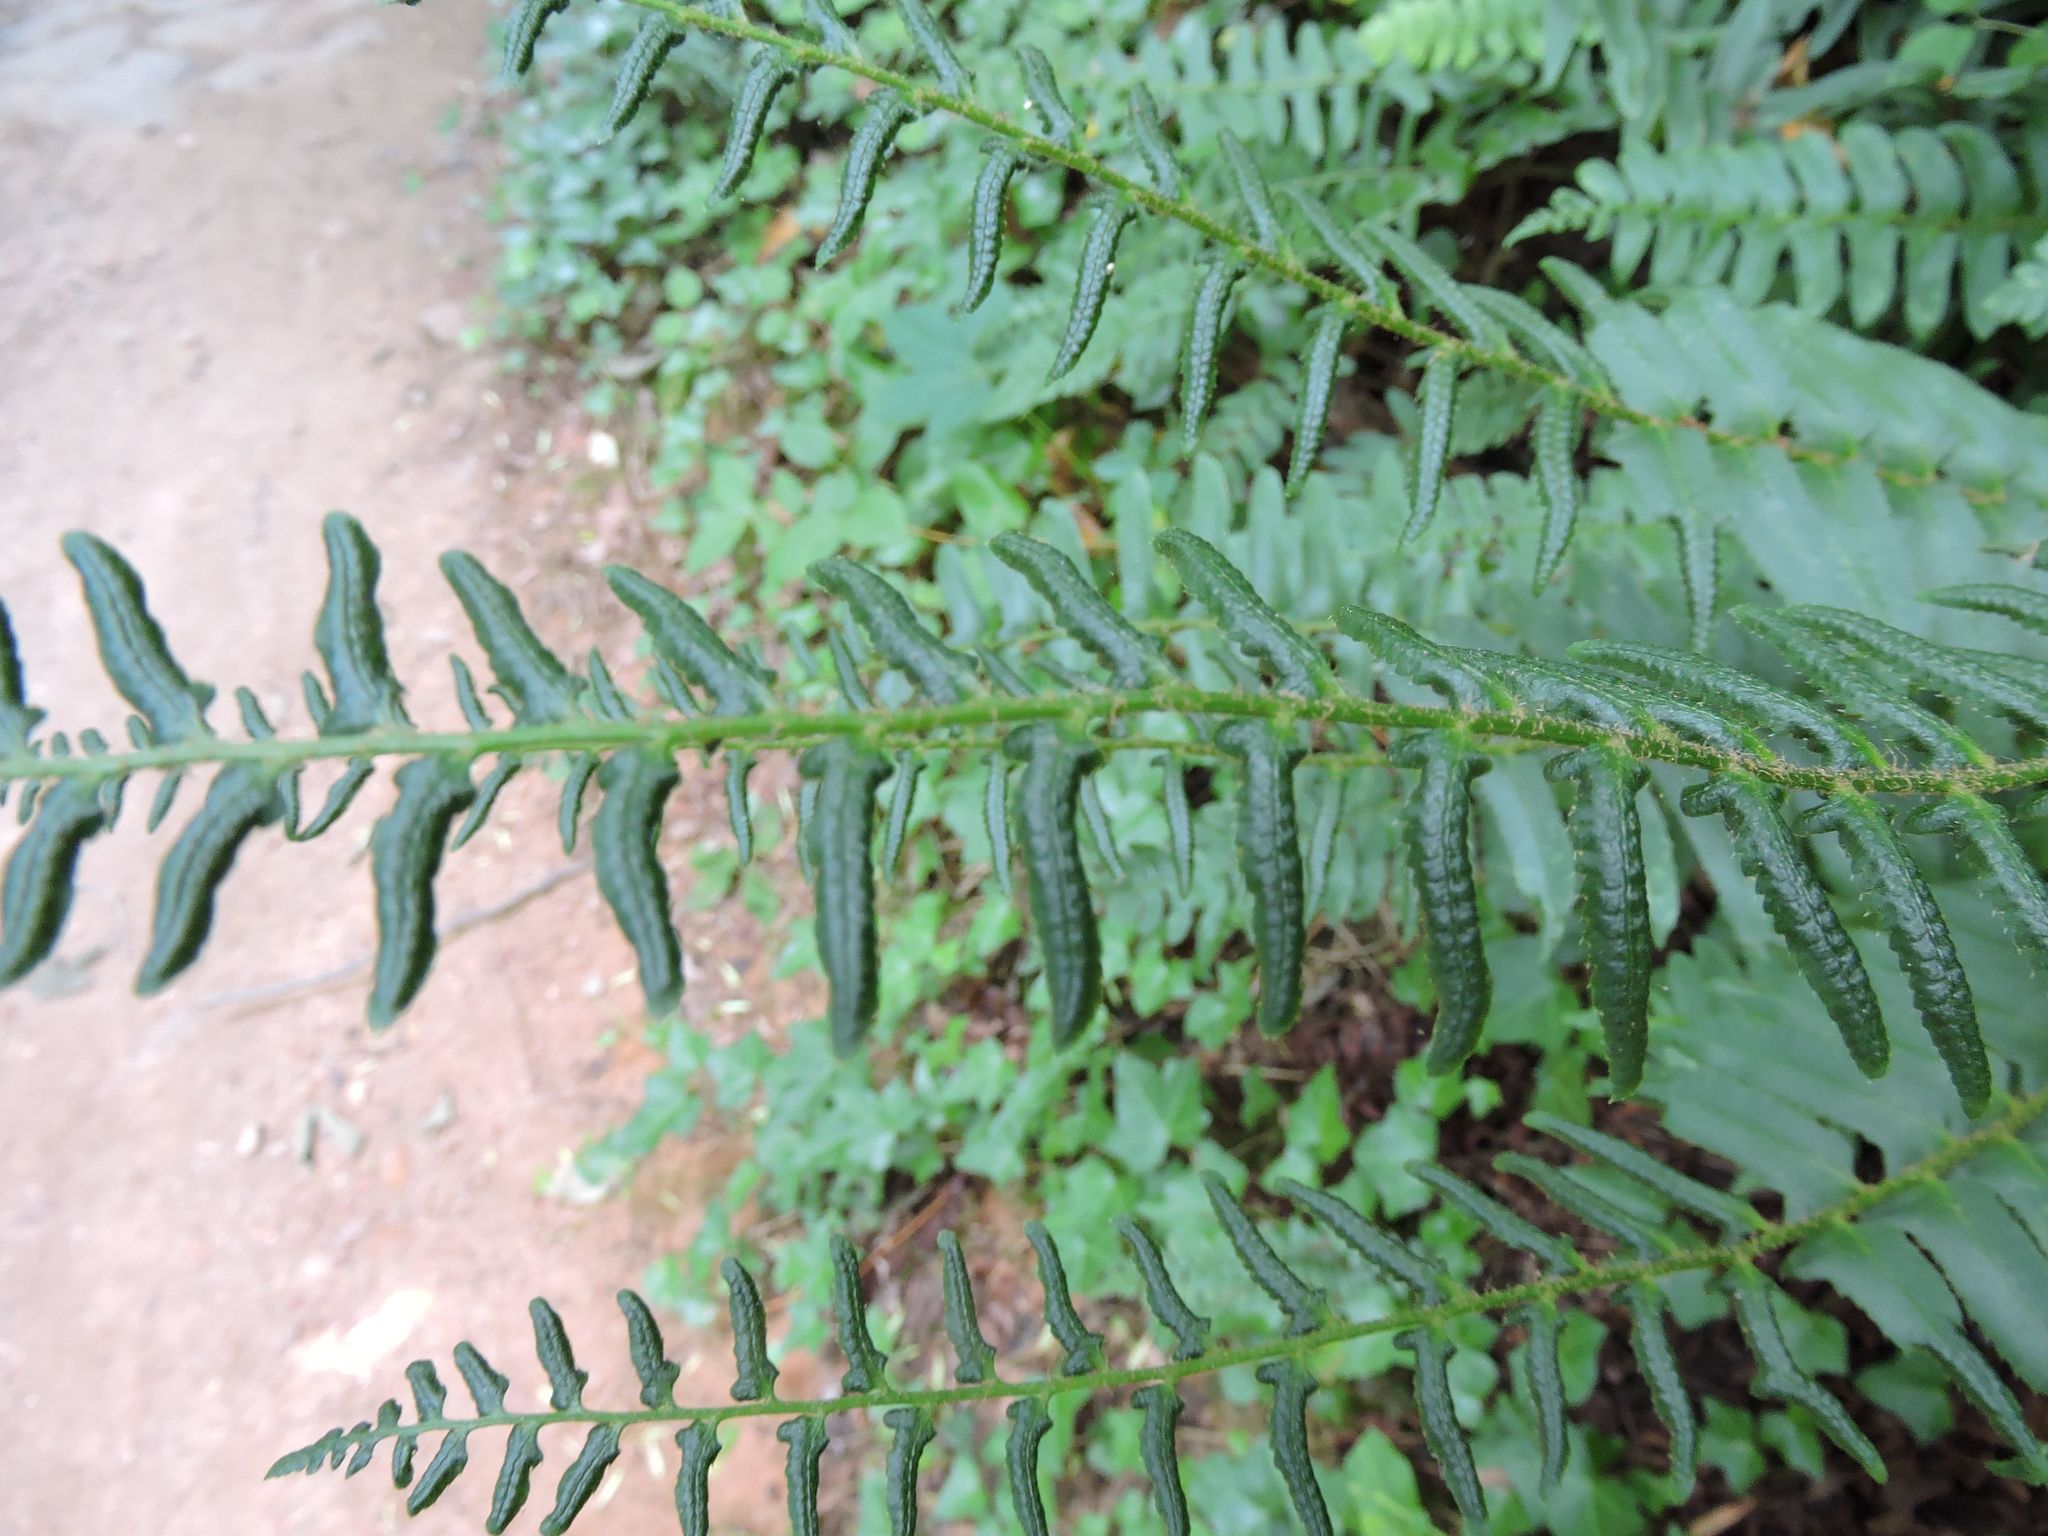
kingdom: Plantae
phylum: Tracheophyta
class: Polypodiopsida
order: Polypodiales
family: Dryopteridaceae
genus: Polystichum
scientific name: Polystichum acrostichoides
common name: Christmas fern
